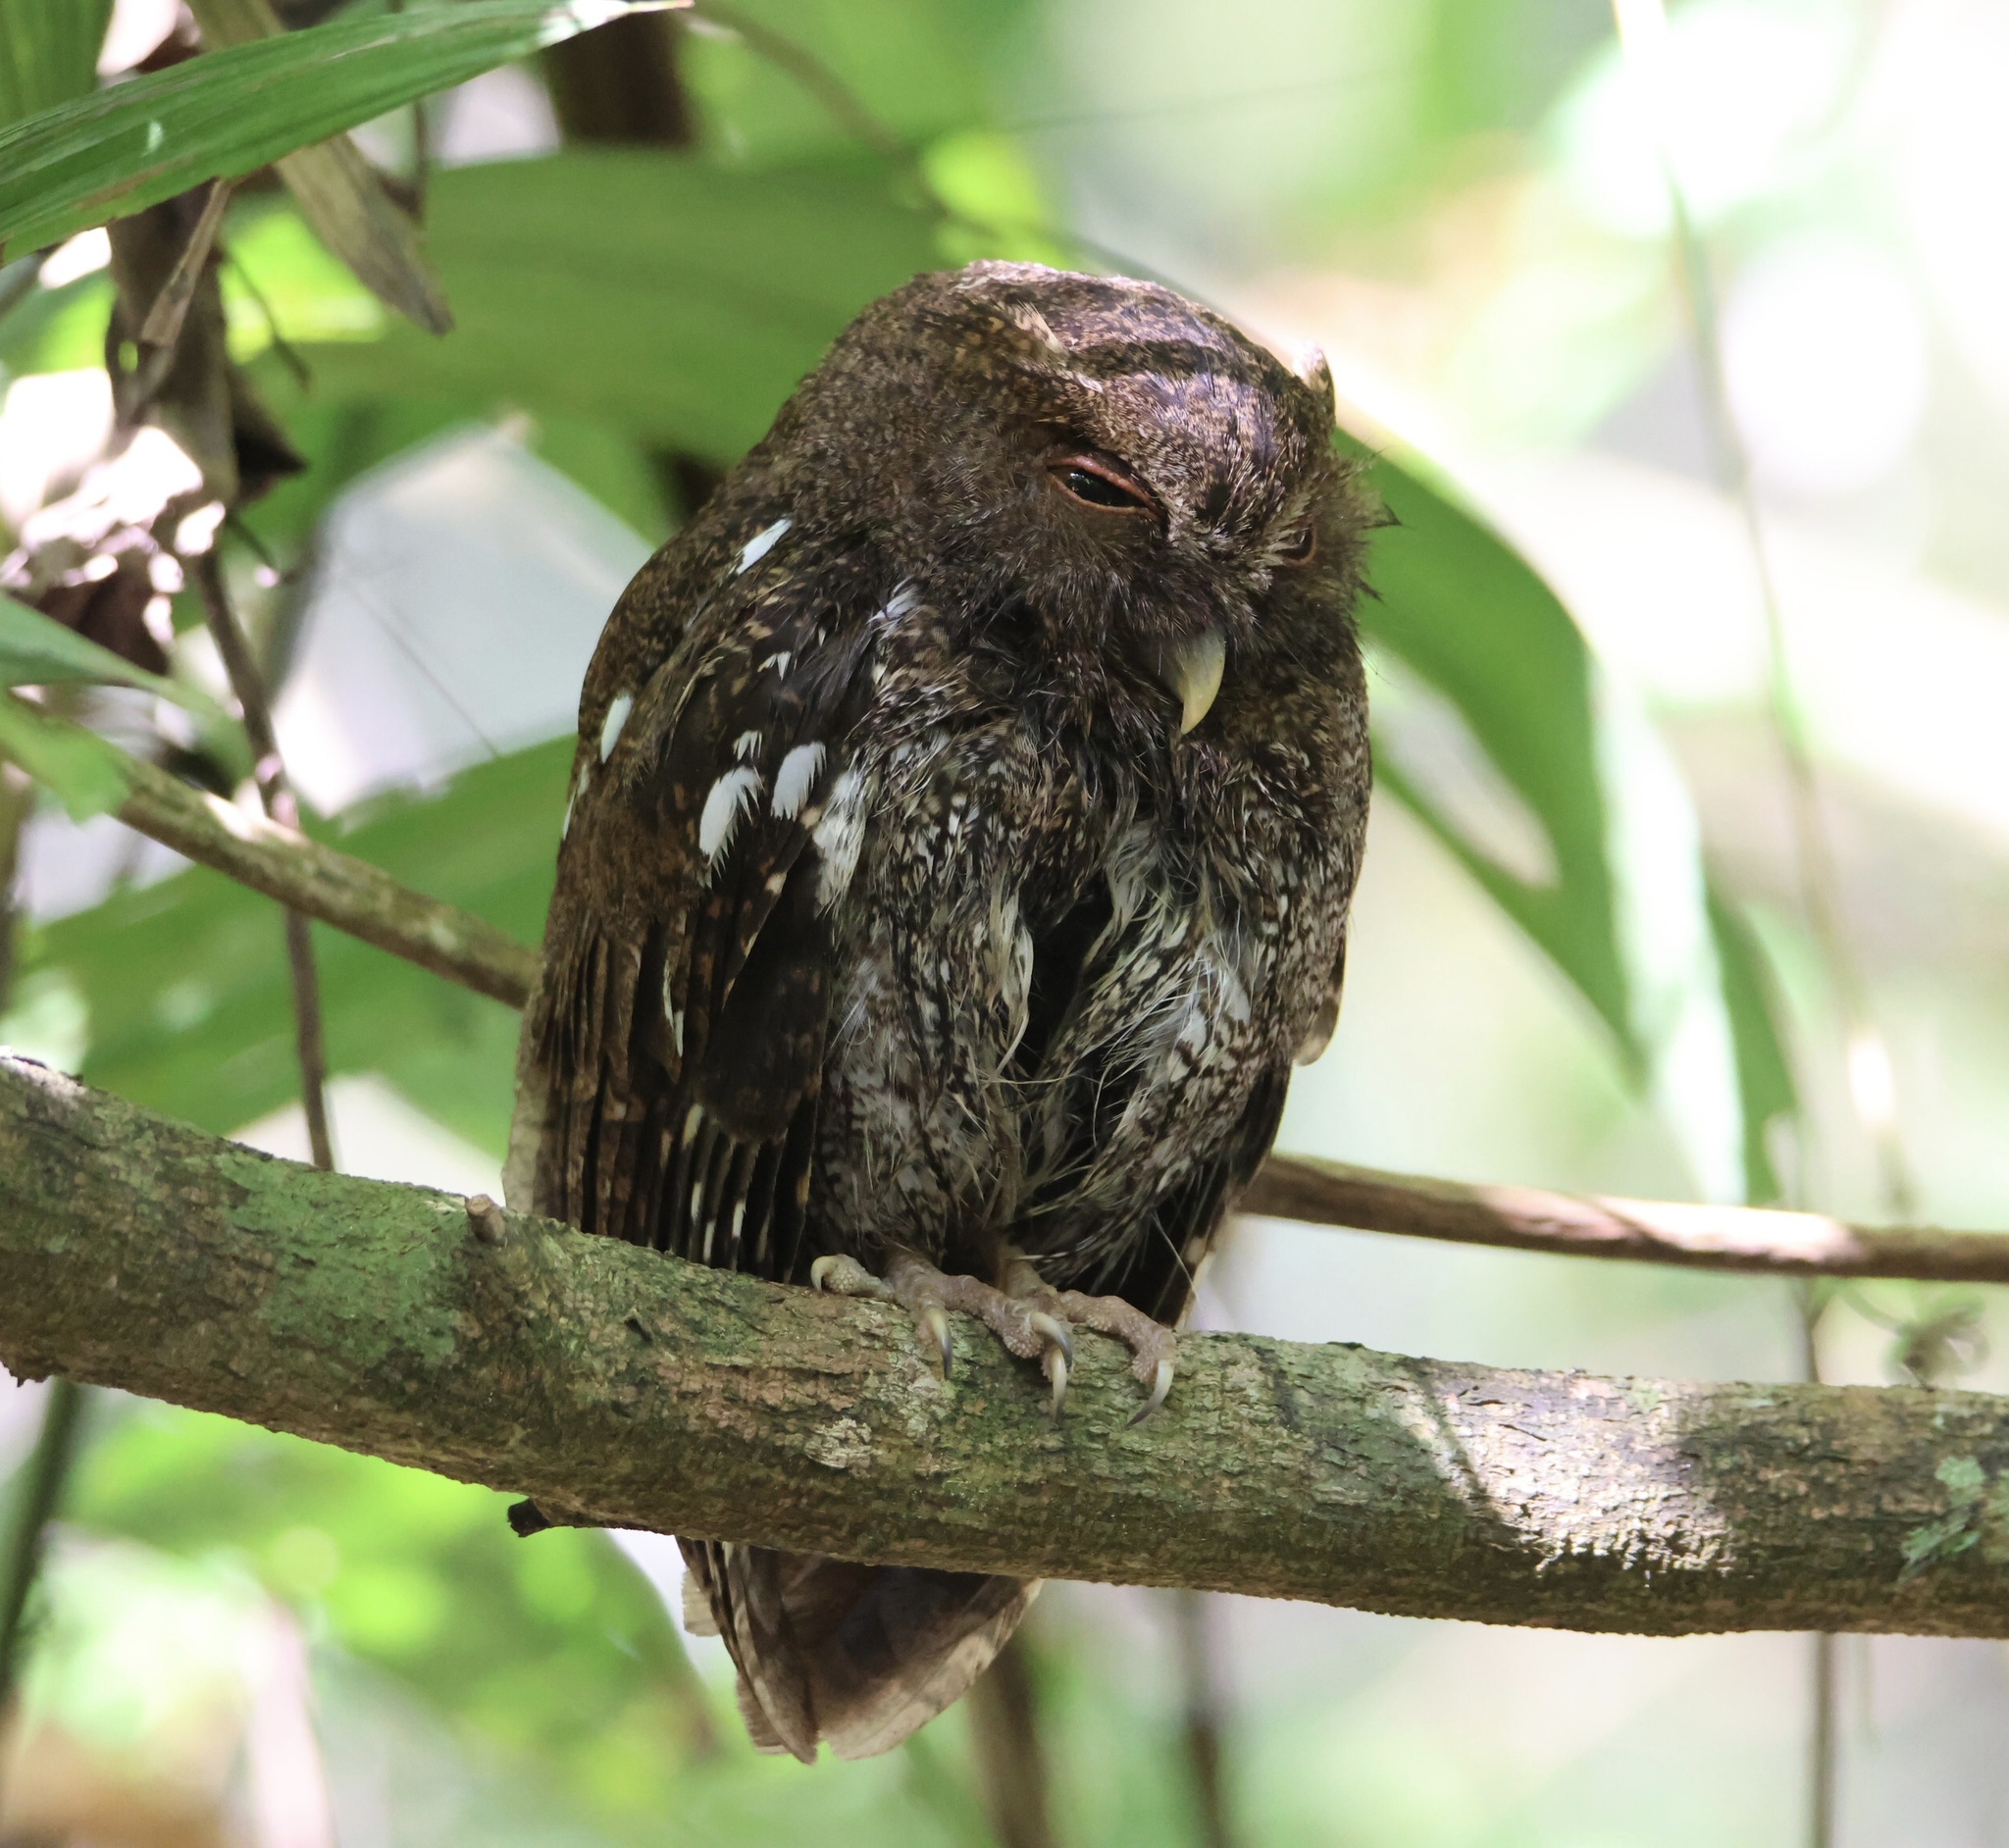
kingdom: Animalia
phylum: Chordata
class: Aves
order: Strigiformes
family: Strigidae
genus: Megascops
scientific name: Megascops centralis
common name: Choco screech owl
